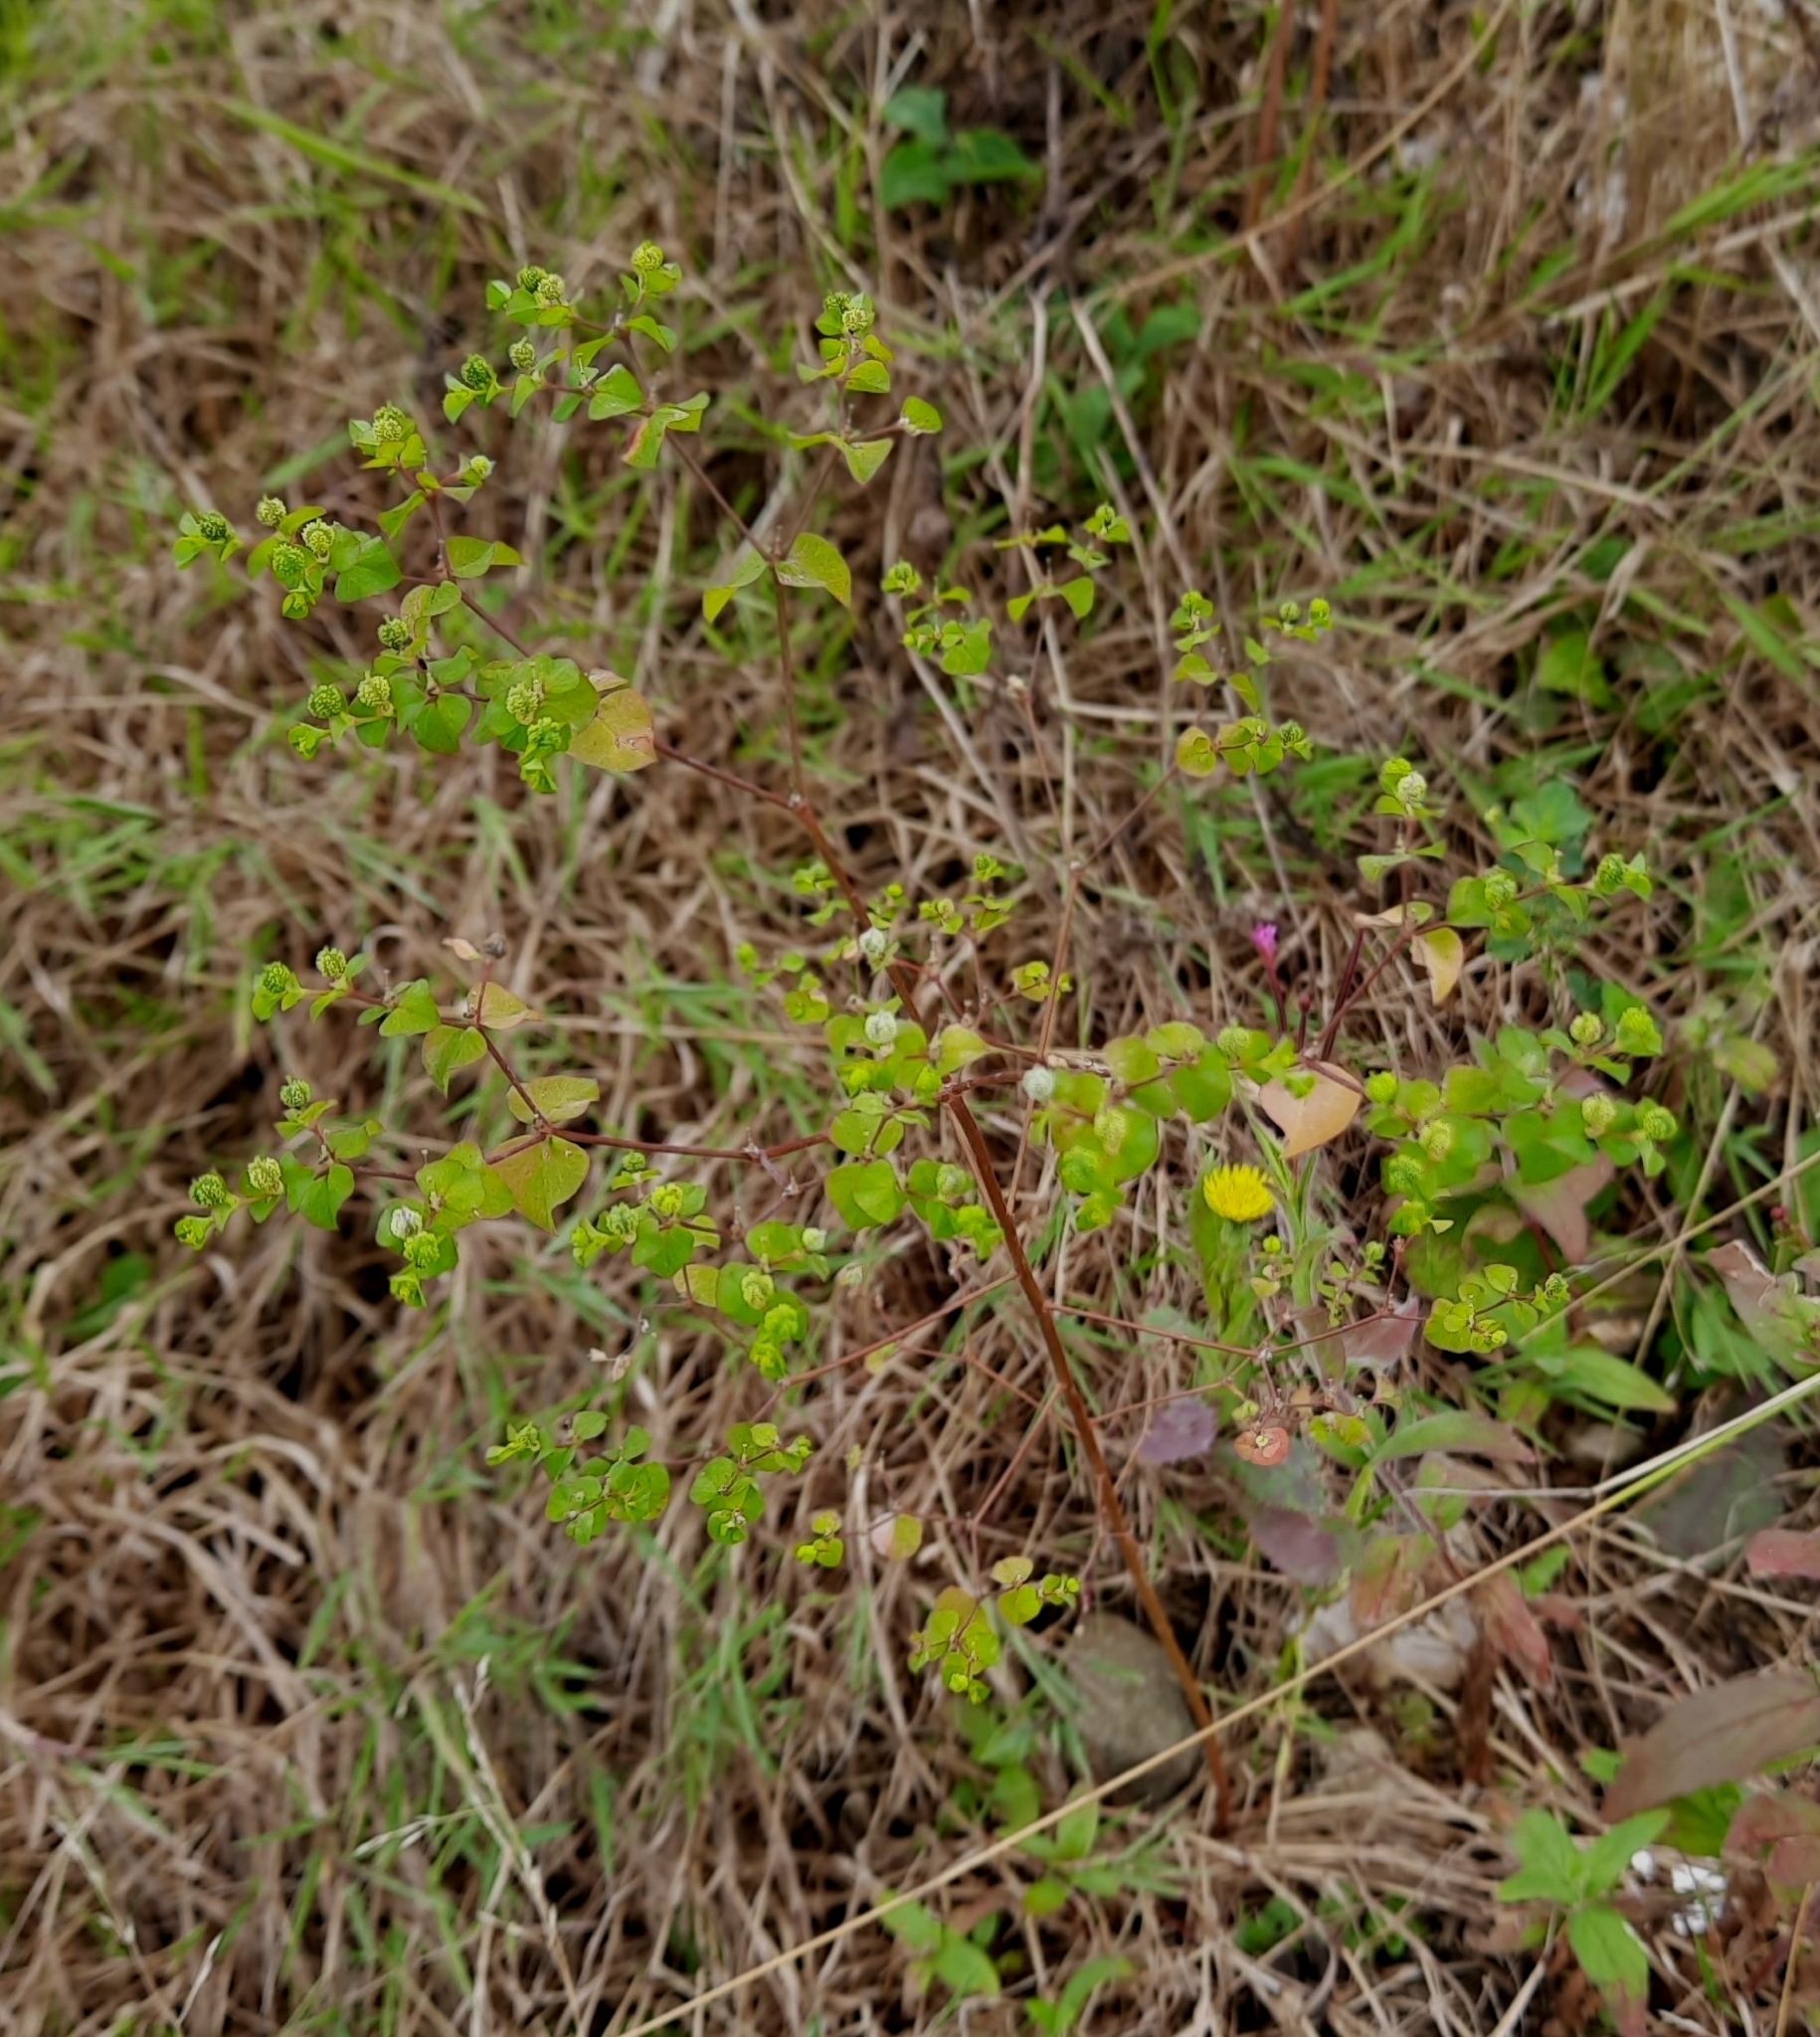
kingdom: Plantae
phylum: Tracheophyta
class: Magnoliopsida
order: Malpighiales
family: Euphorbiaceae
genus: Euphorbia
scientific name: Euphorbia stricta
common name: Upright spurge
